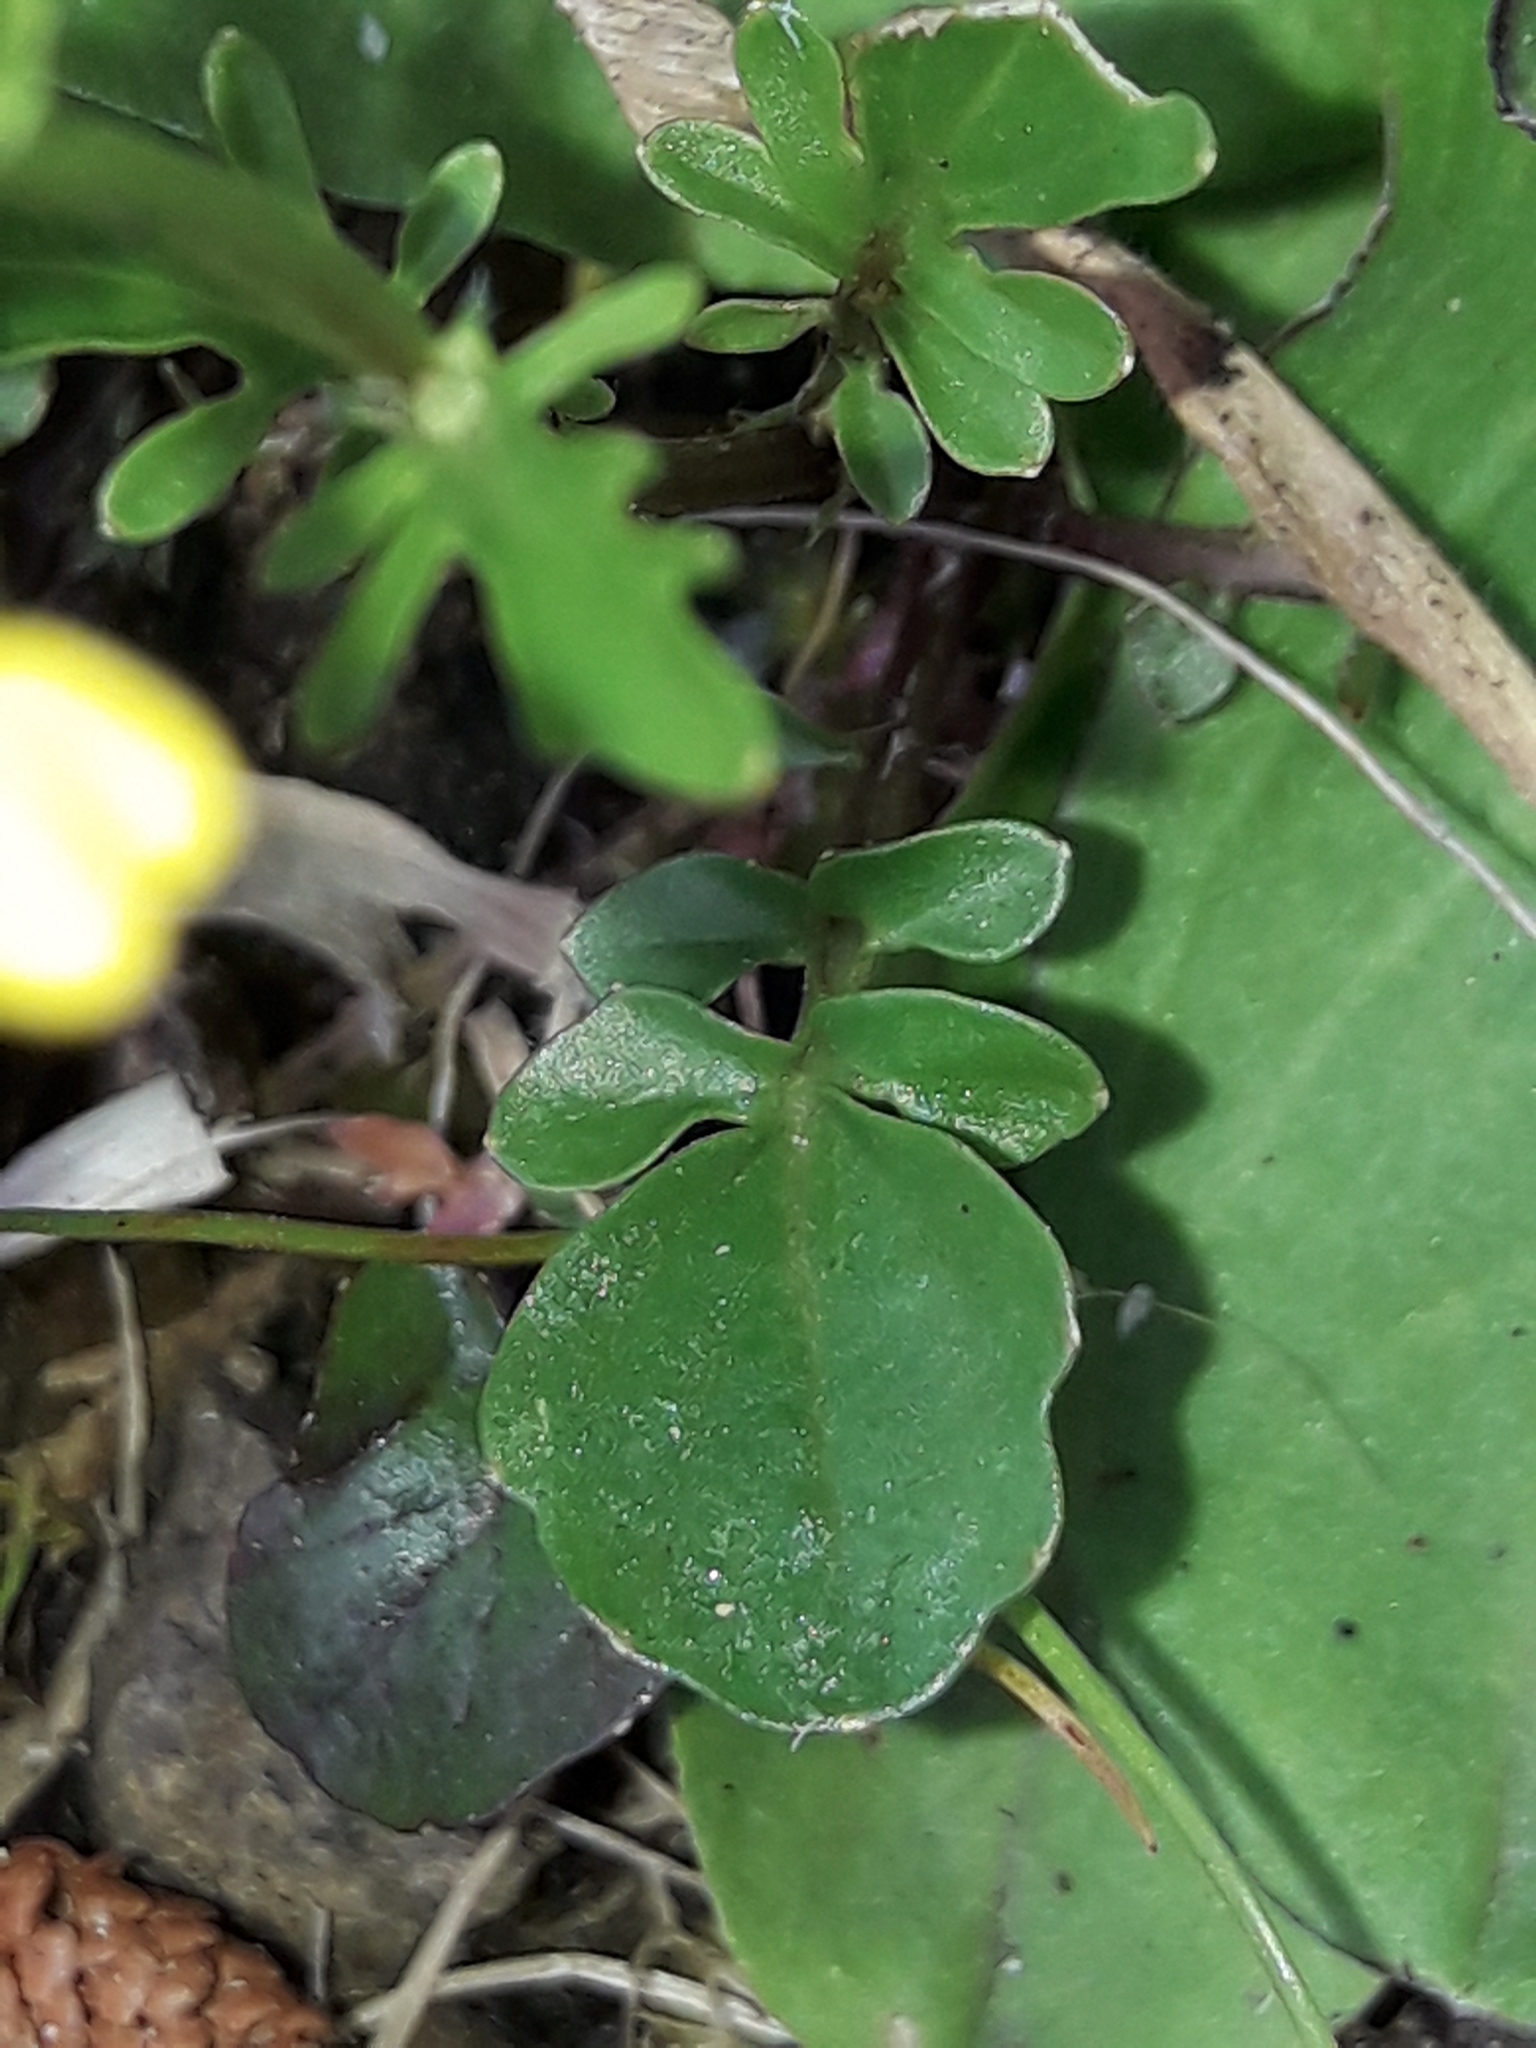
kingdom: Plantae
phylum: Tracheophyta
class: Magnoliopsida
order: Brassicales
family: Brassicaceae
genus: Barbarea
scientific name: Barbarea verna
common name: American cress
